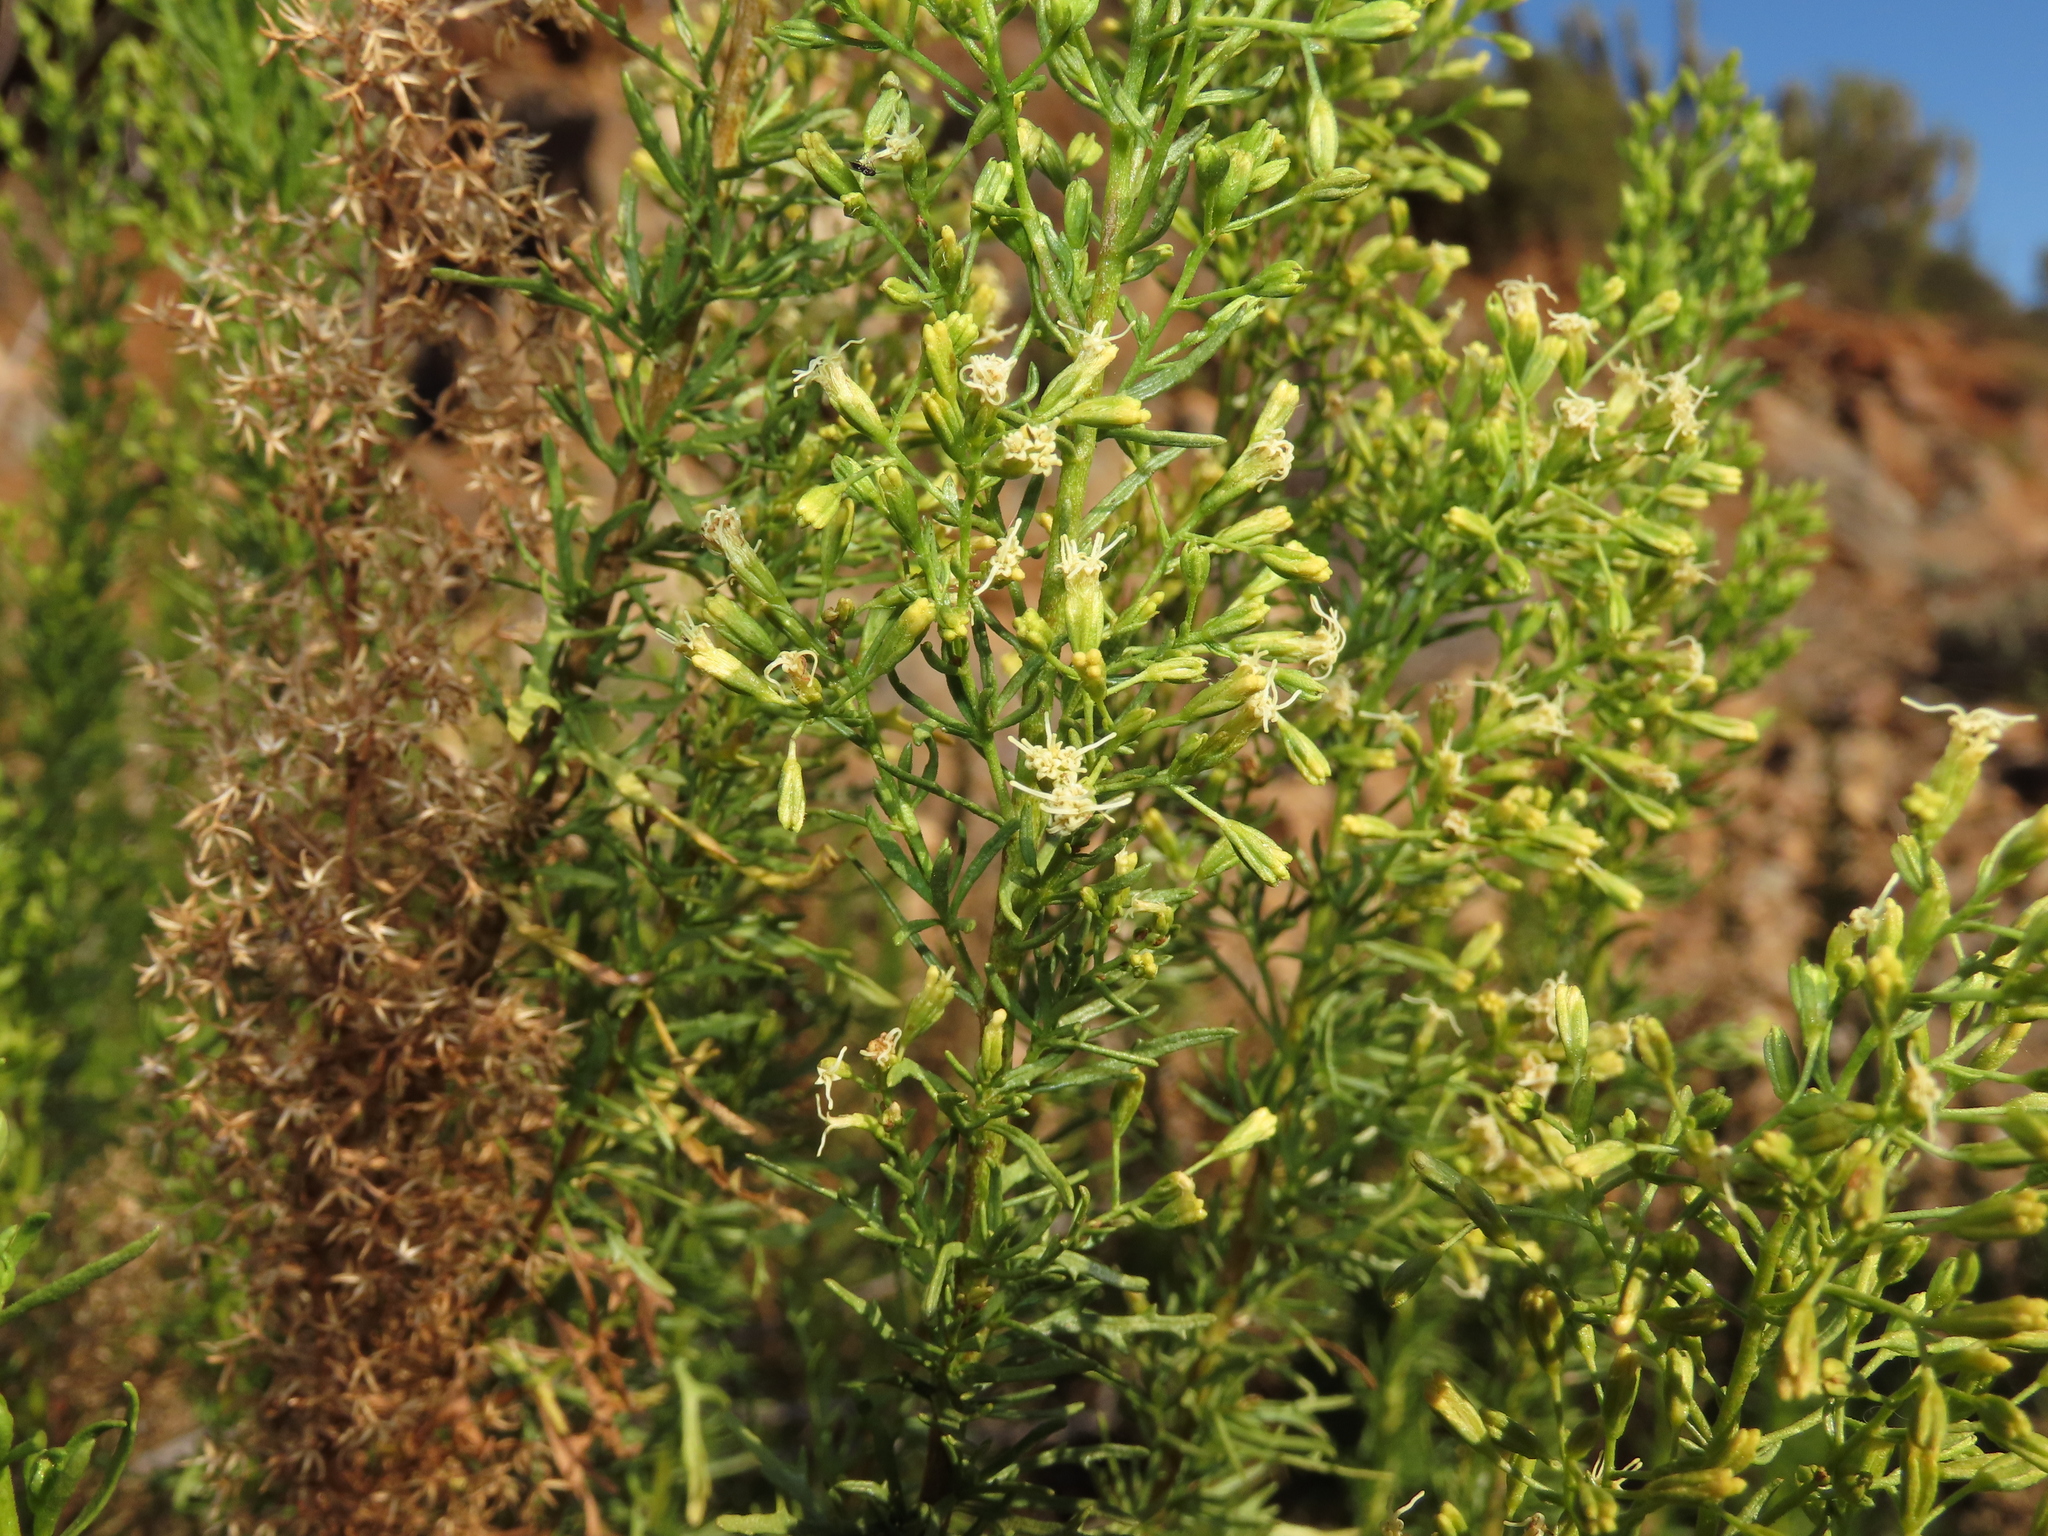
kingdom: Plantae
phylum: Tracheophyta
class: Magnoliopsida
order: Asterales
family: Asteraceae
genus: Ophryosporus
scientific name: Ophryosporus paradoxus
